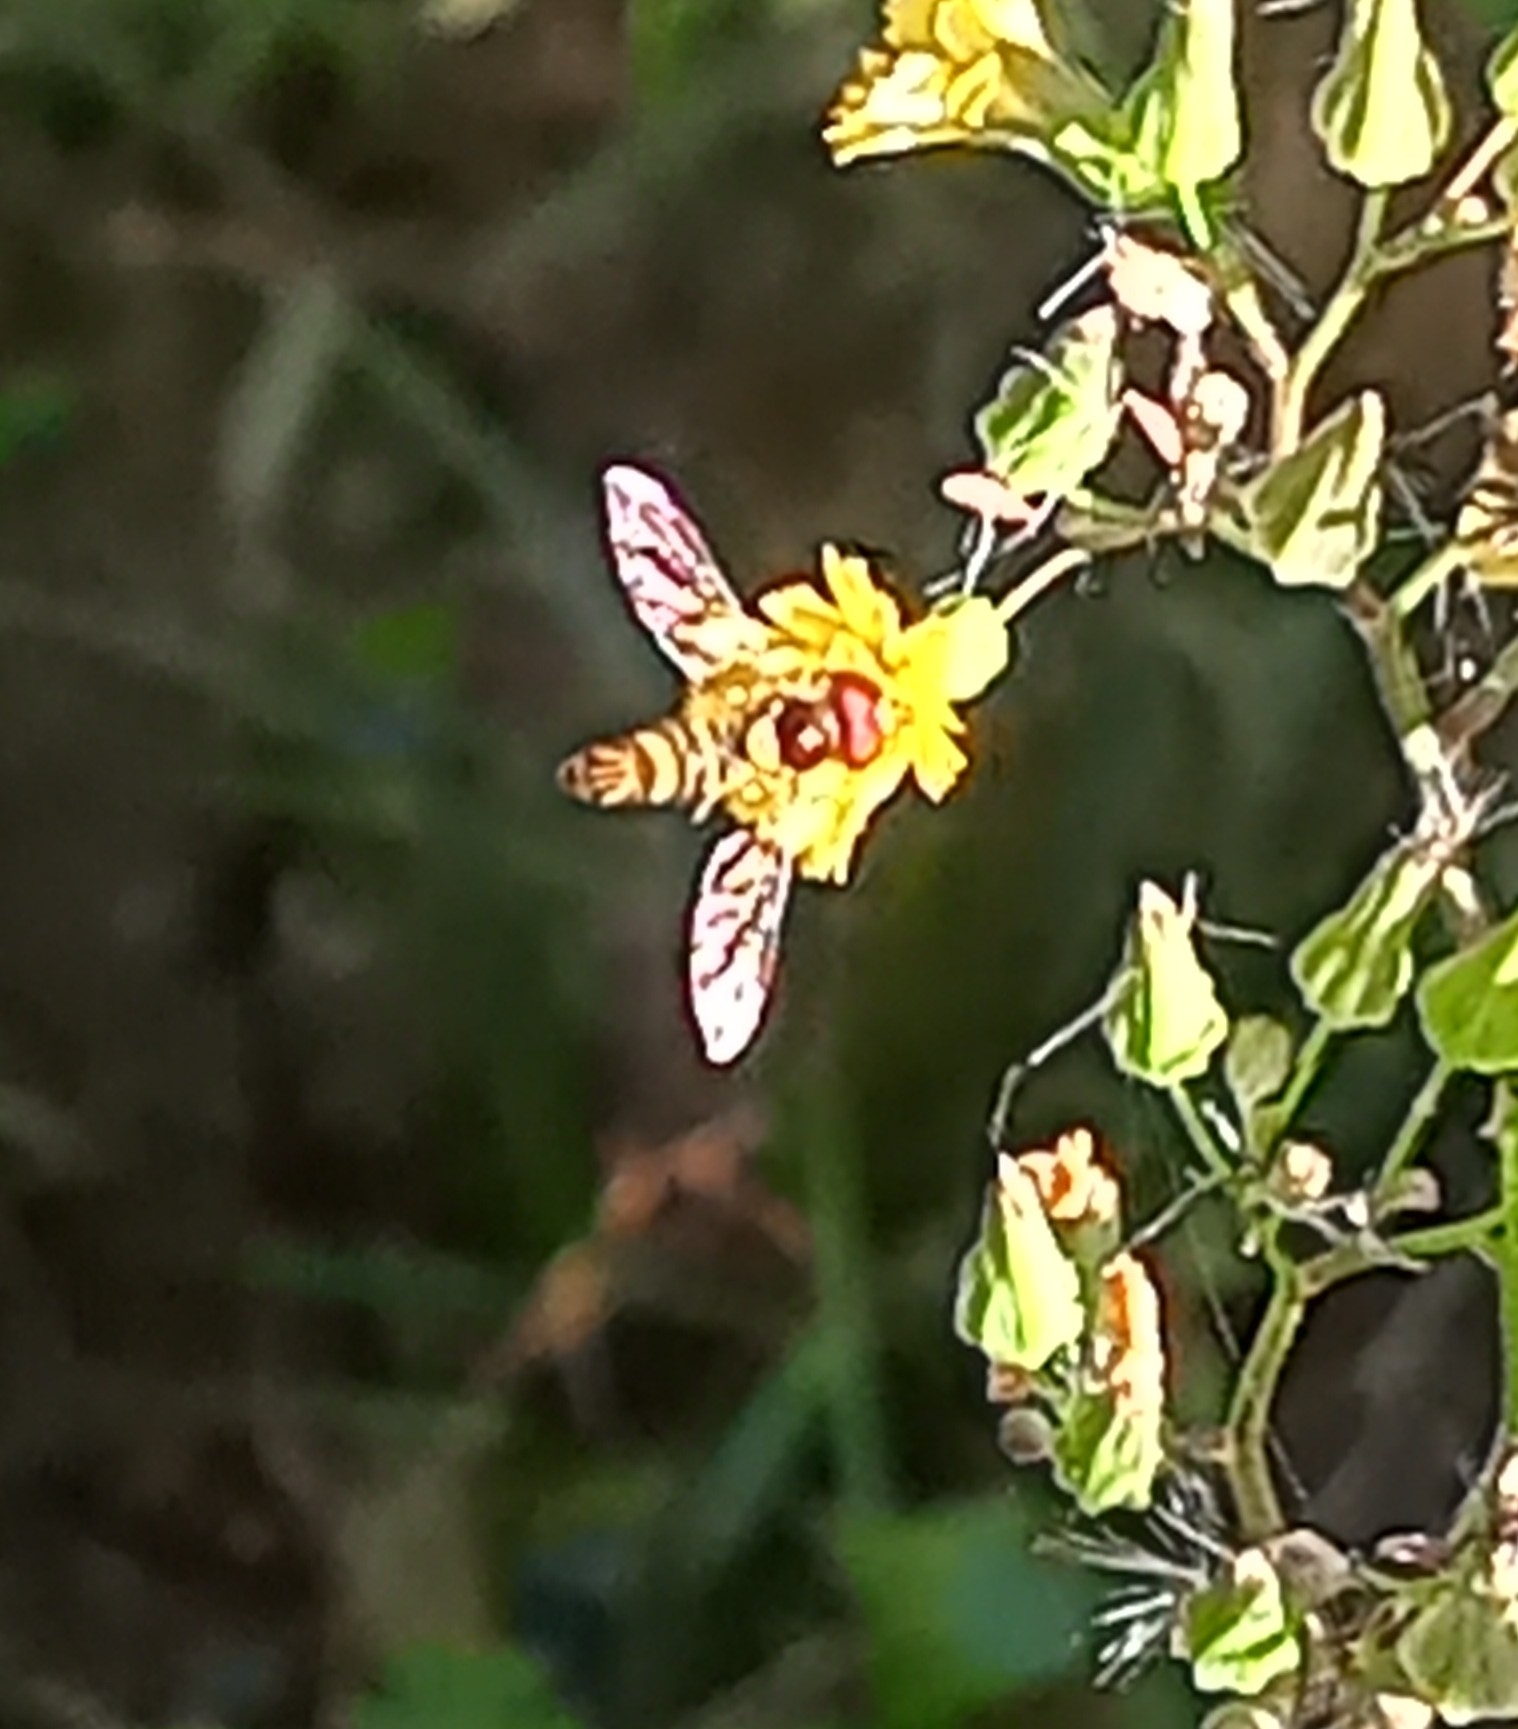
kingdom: Animalia
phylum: Arthropoda
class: Insecta
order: Diptera
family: Syrphidae
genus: Allograpta
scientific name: Allograpta obliqua
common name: Common oblique syrphid
